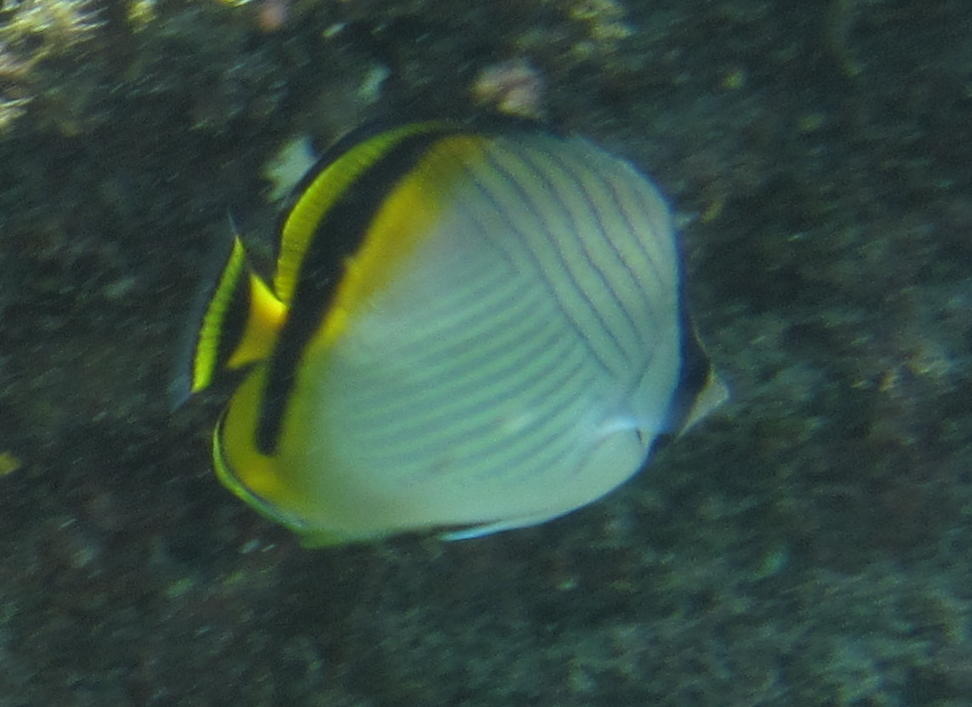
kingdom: Animalia
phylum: Chordata
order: Perciformes
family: Chaetodontidae
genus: Chaetodon
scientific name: Chaetodon vagabundus
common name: Vagabond butterflyfish
